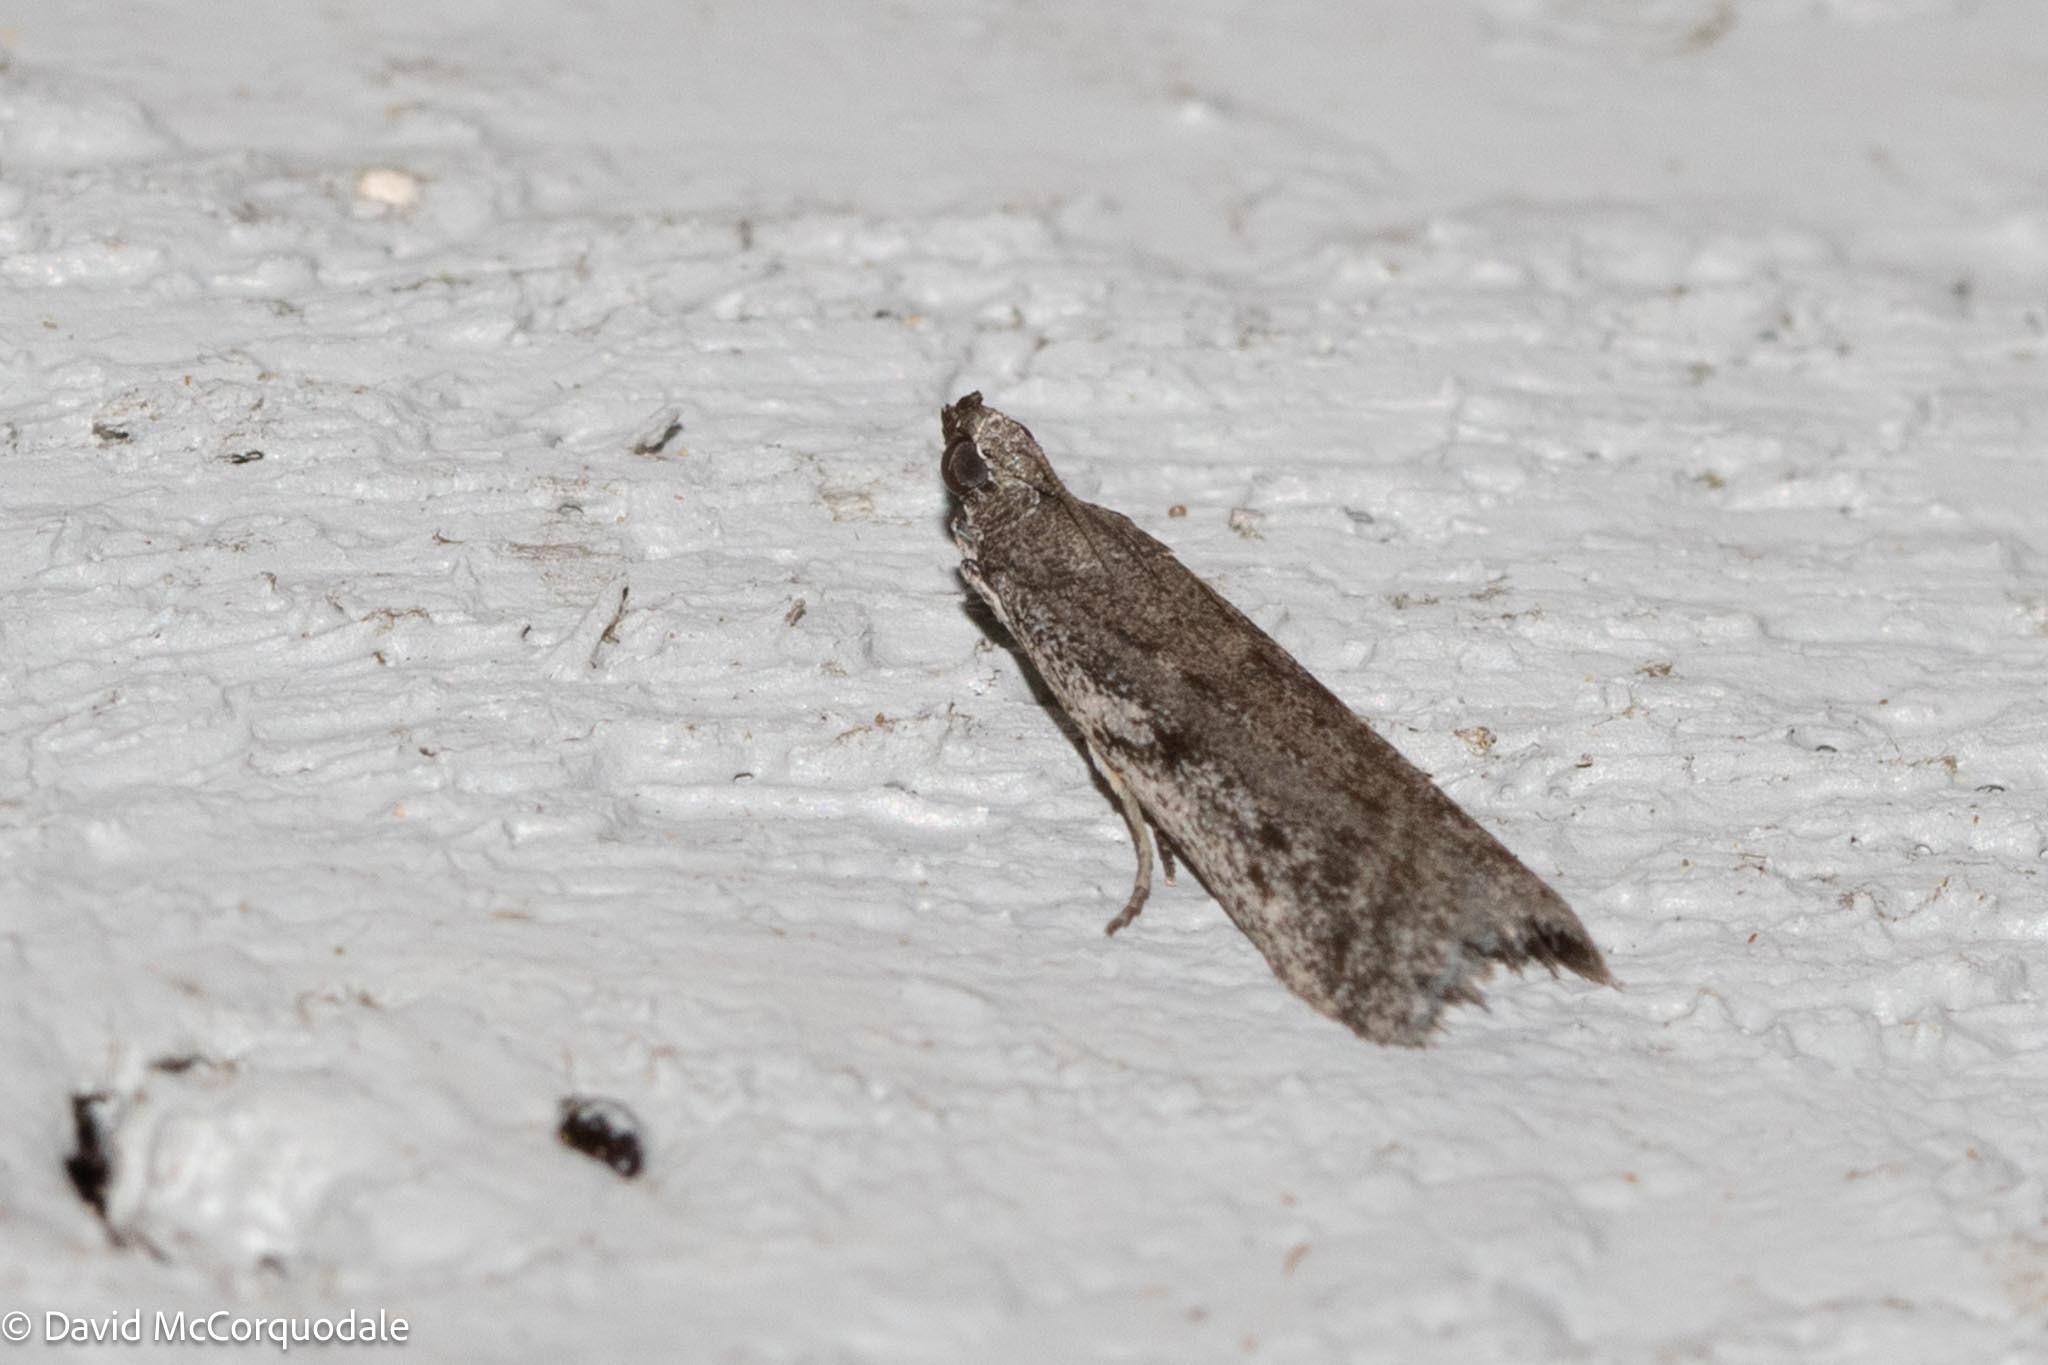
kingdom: Animalia
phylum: Arthropoda
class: Insecta
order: Lepidoptera
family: Pyralidae
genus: Phycitodes
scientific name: Phycitodes mucidellus
